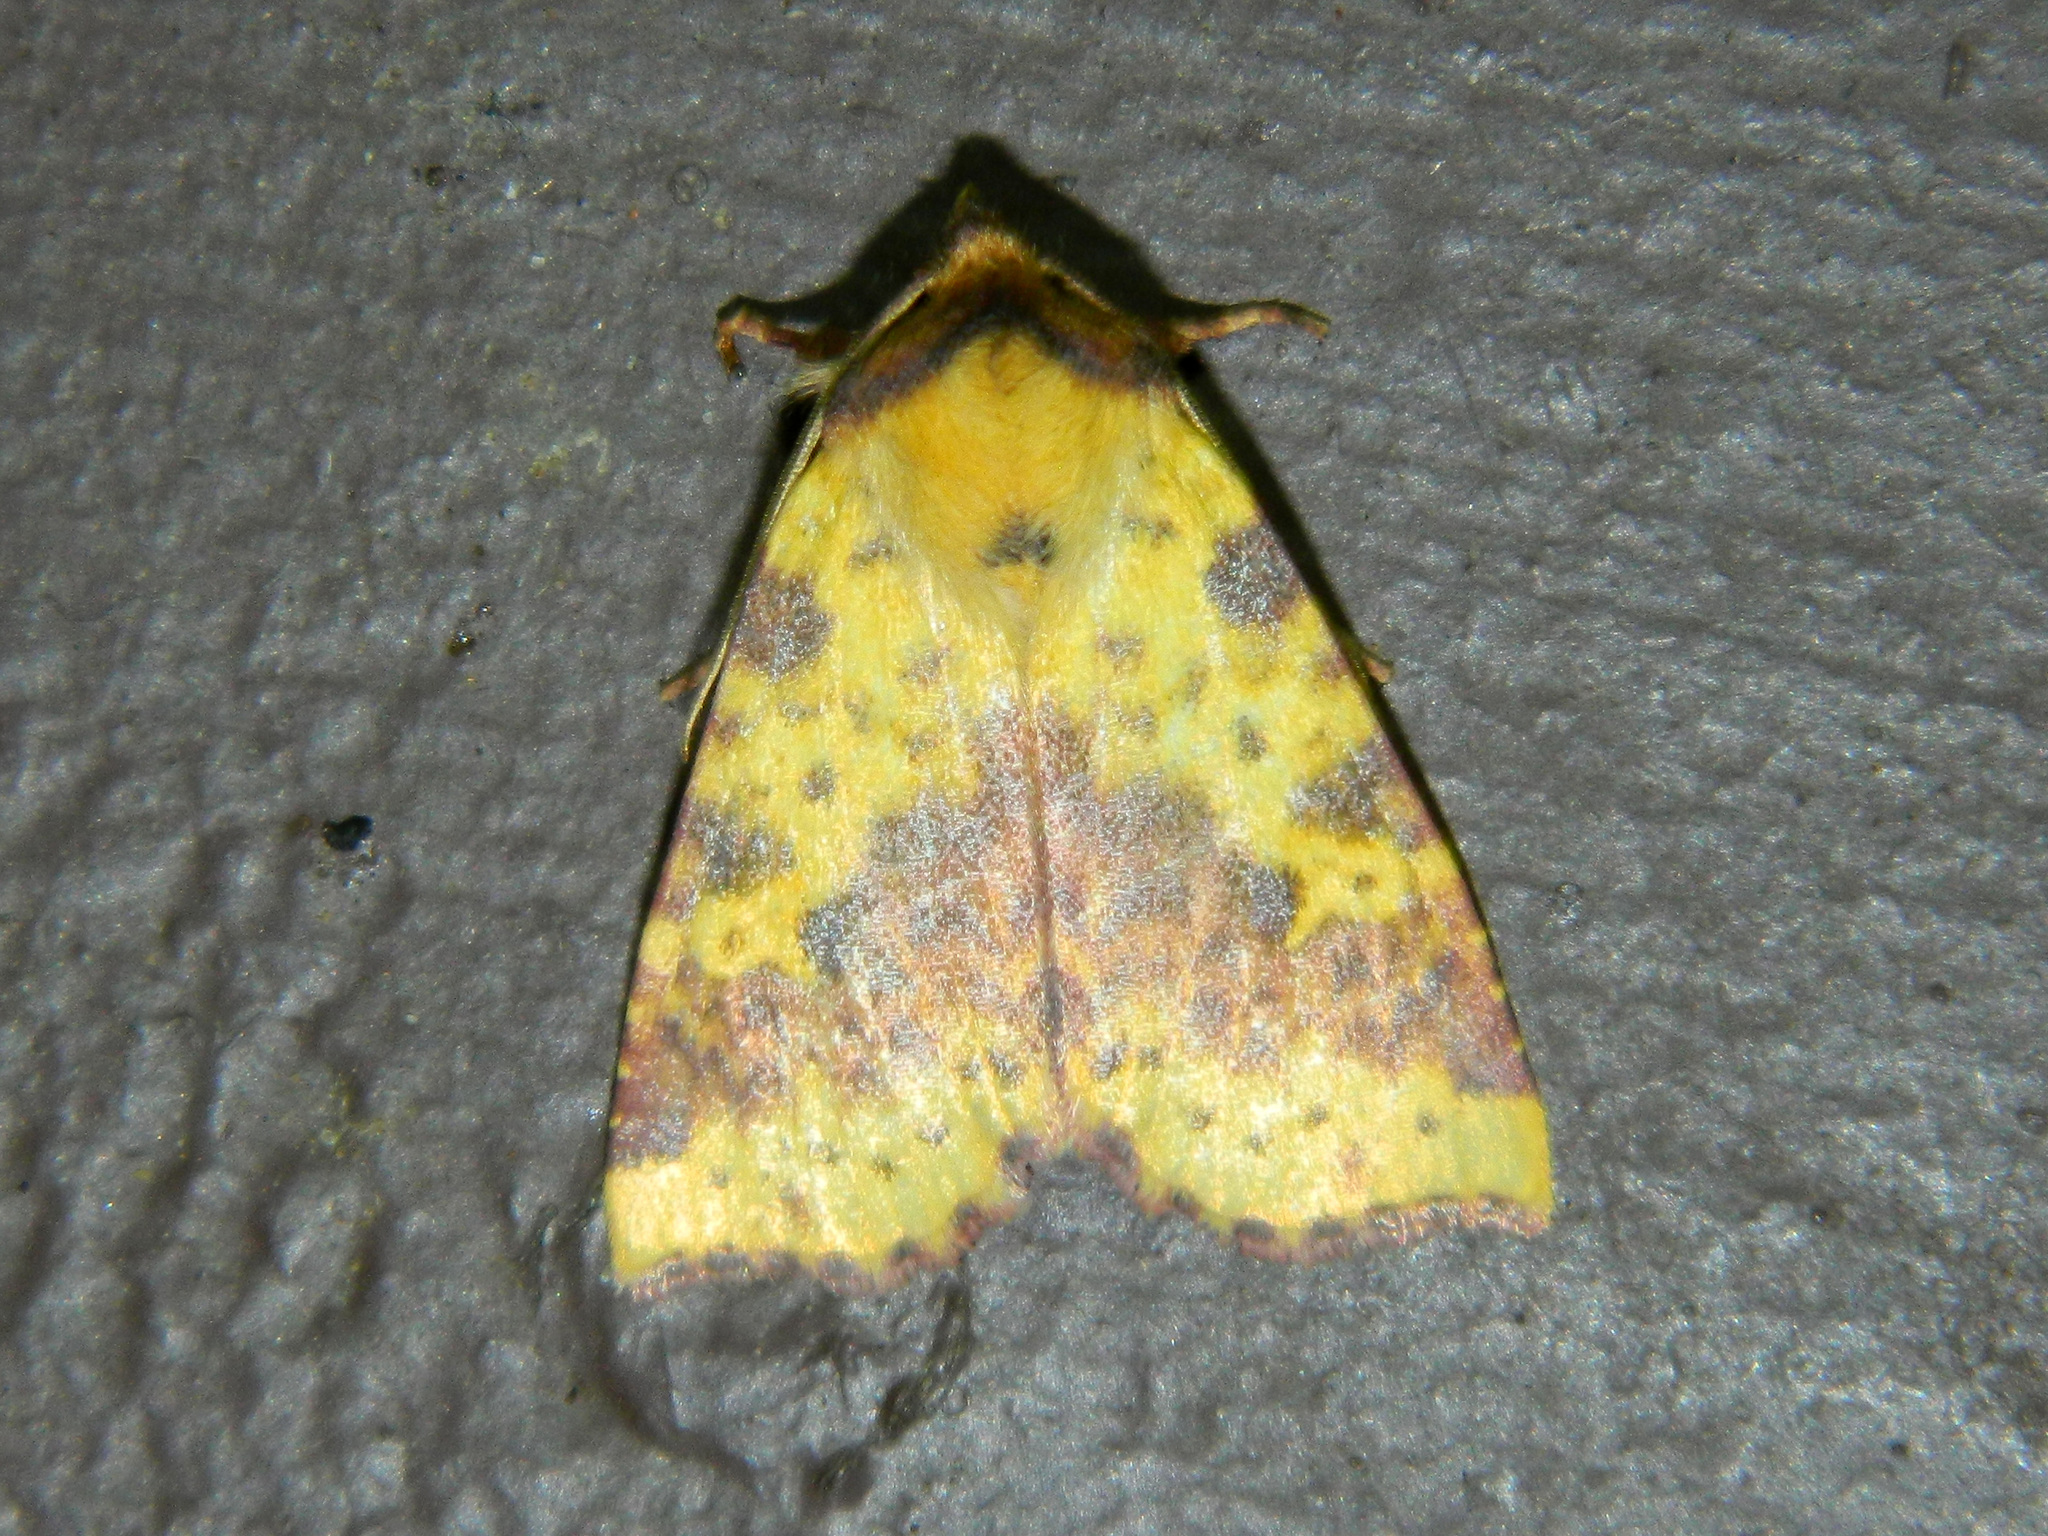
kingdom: Animalia
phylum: Arthropoda
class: Insecta
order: Lepidoptera
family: Noctuidae
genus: Xanthia
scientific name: Xanthia tatago
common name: Pink-banded sallow
